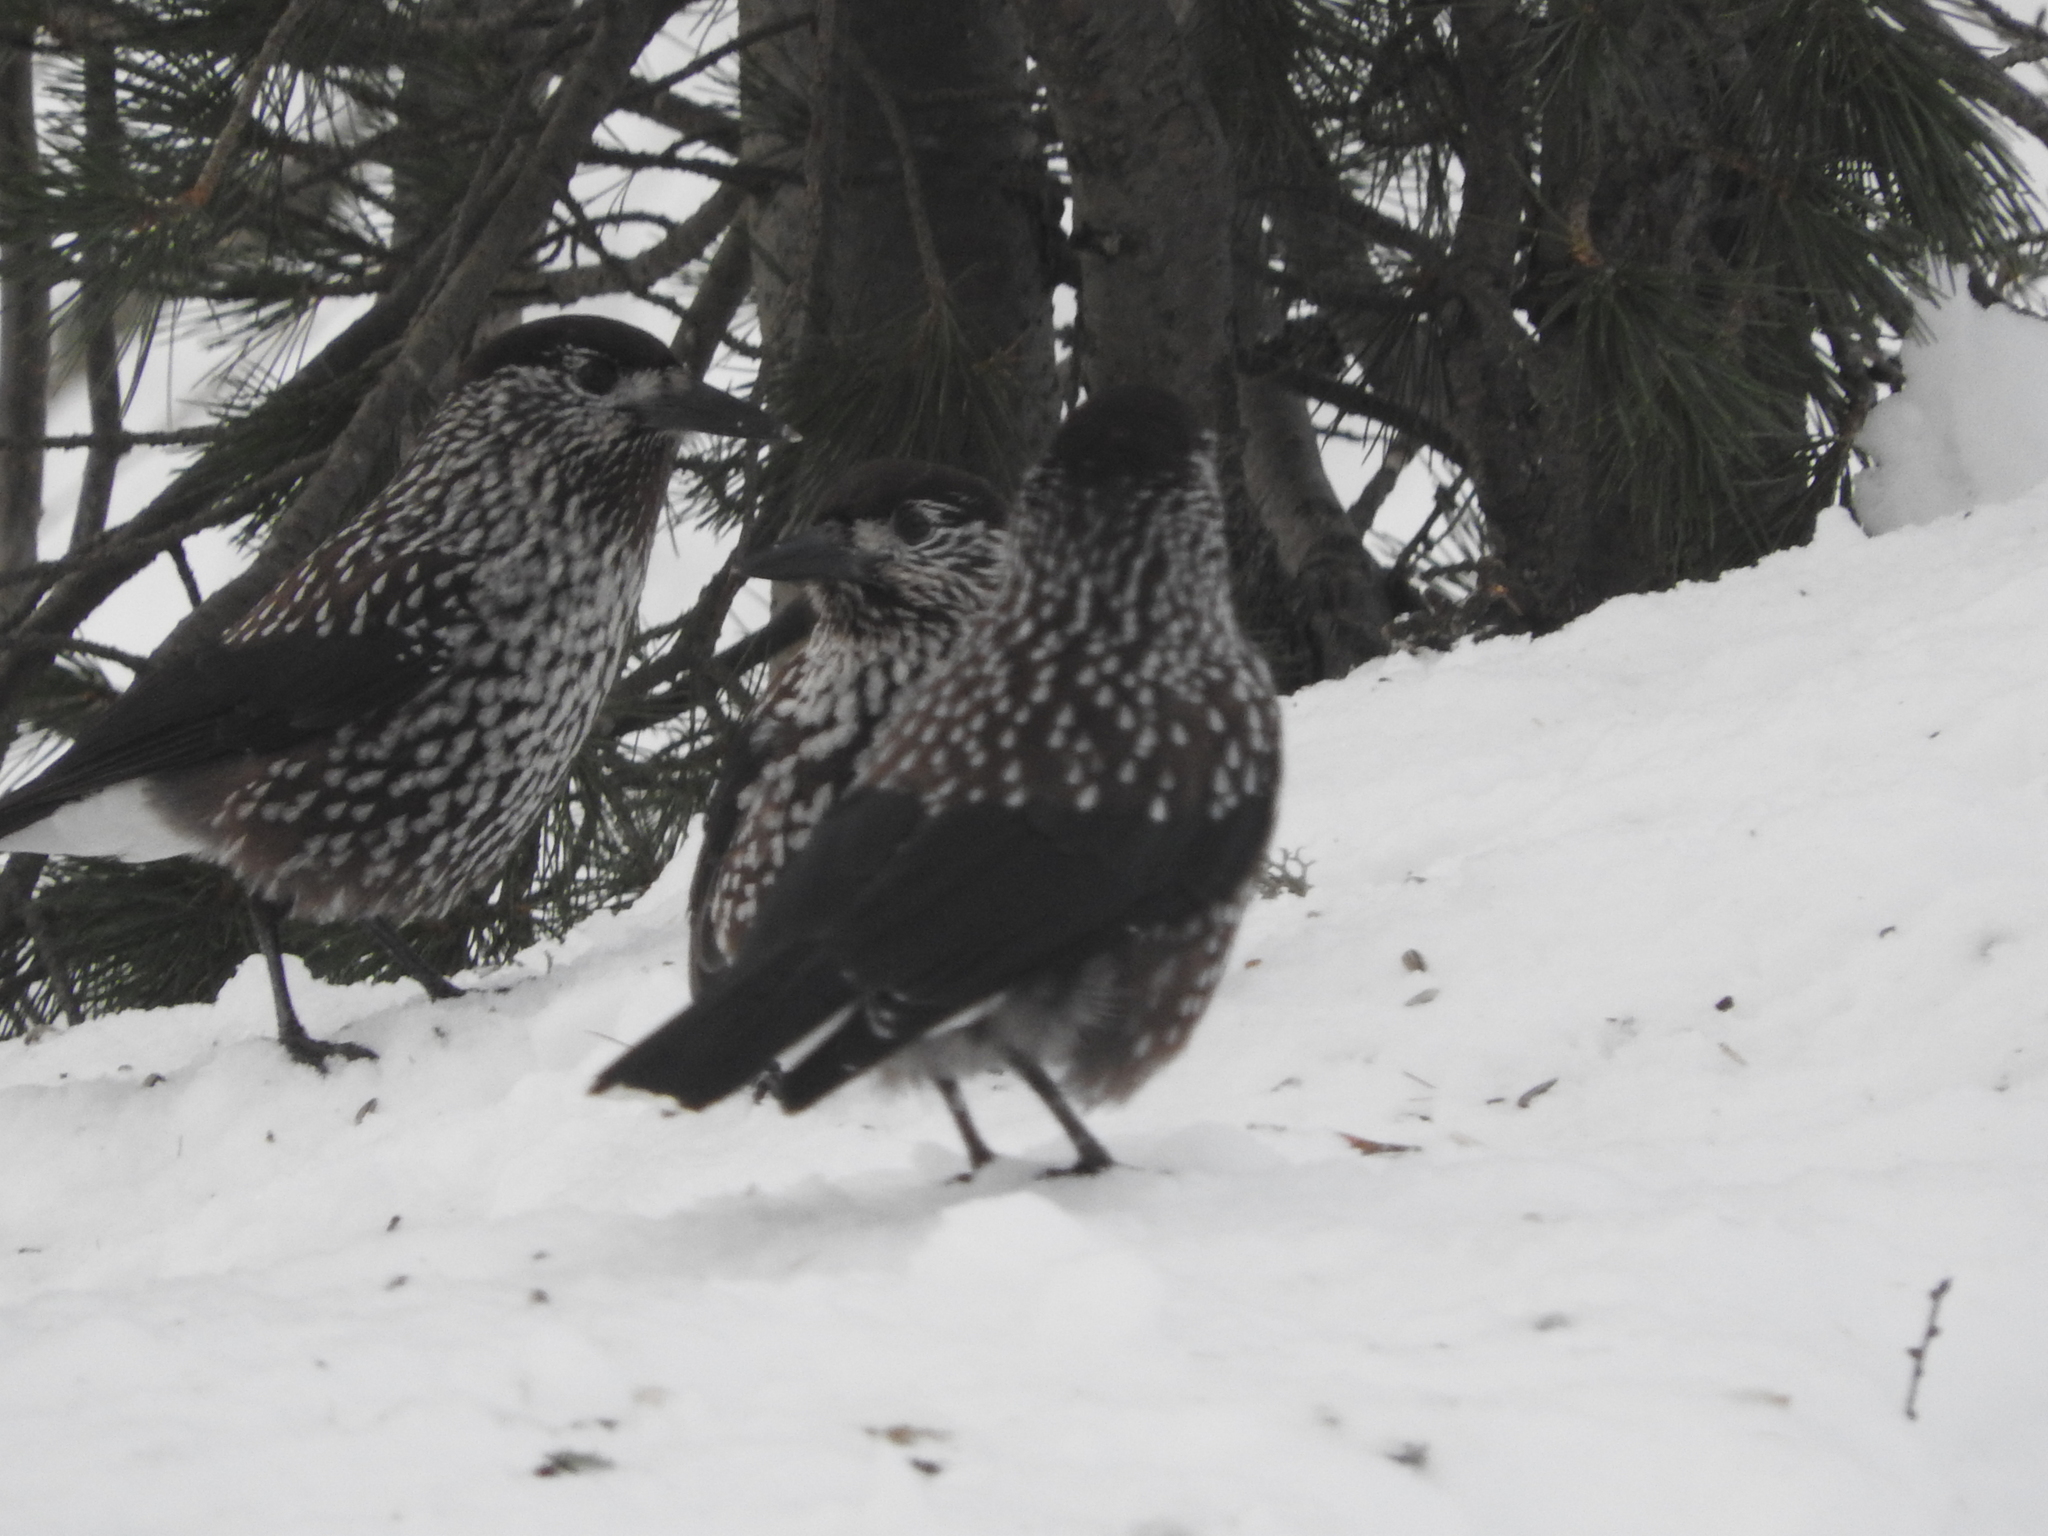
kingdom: Animalia
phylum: Chordata
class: Aves
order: Passeriformes
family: Corvidae
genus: Nucifraga
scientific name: Nucifraga caryocatactes
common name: Spotted nutcracker
